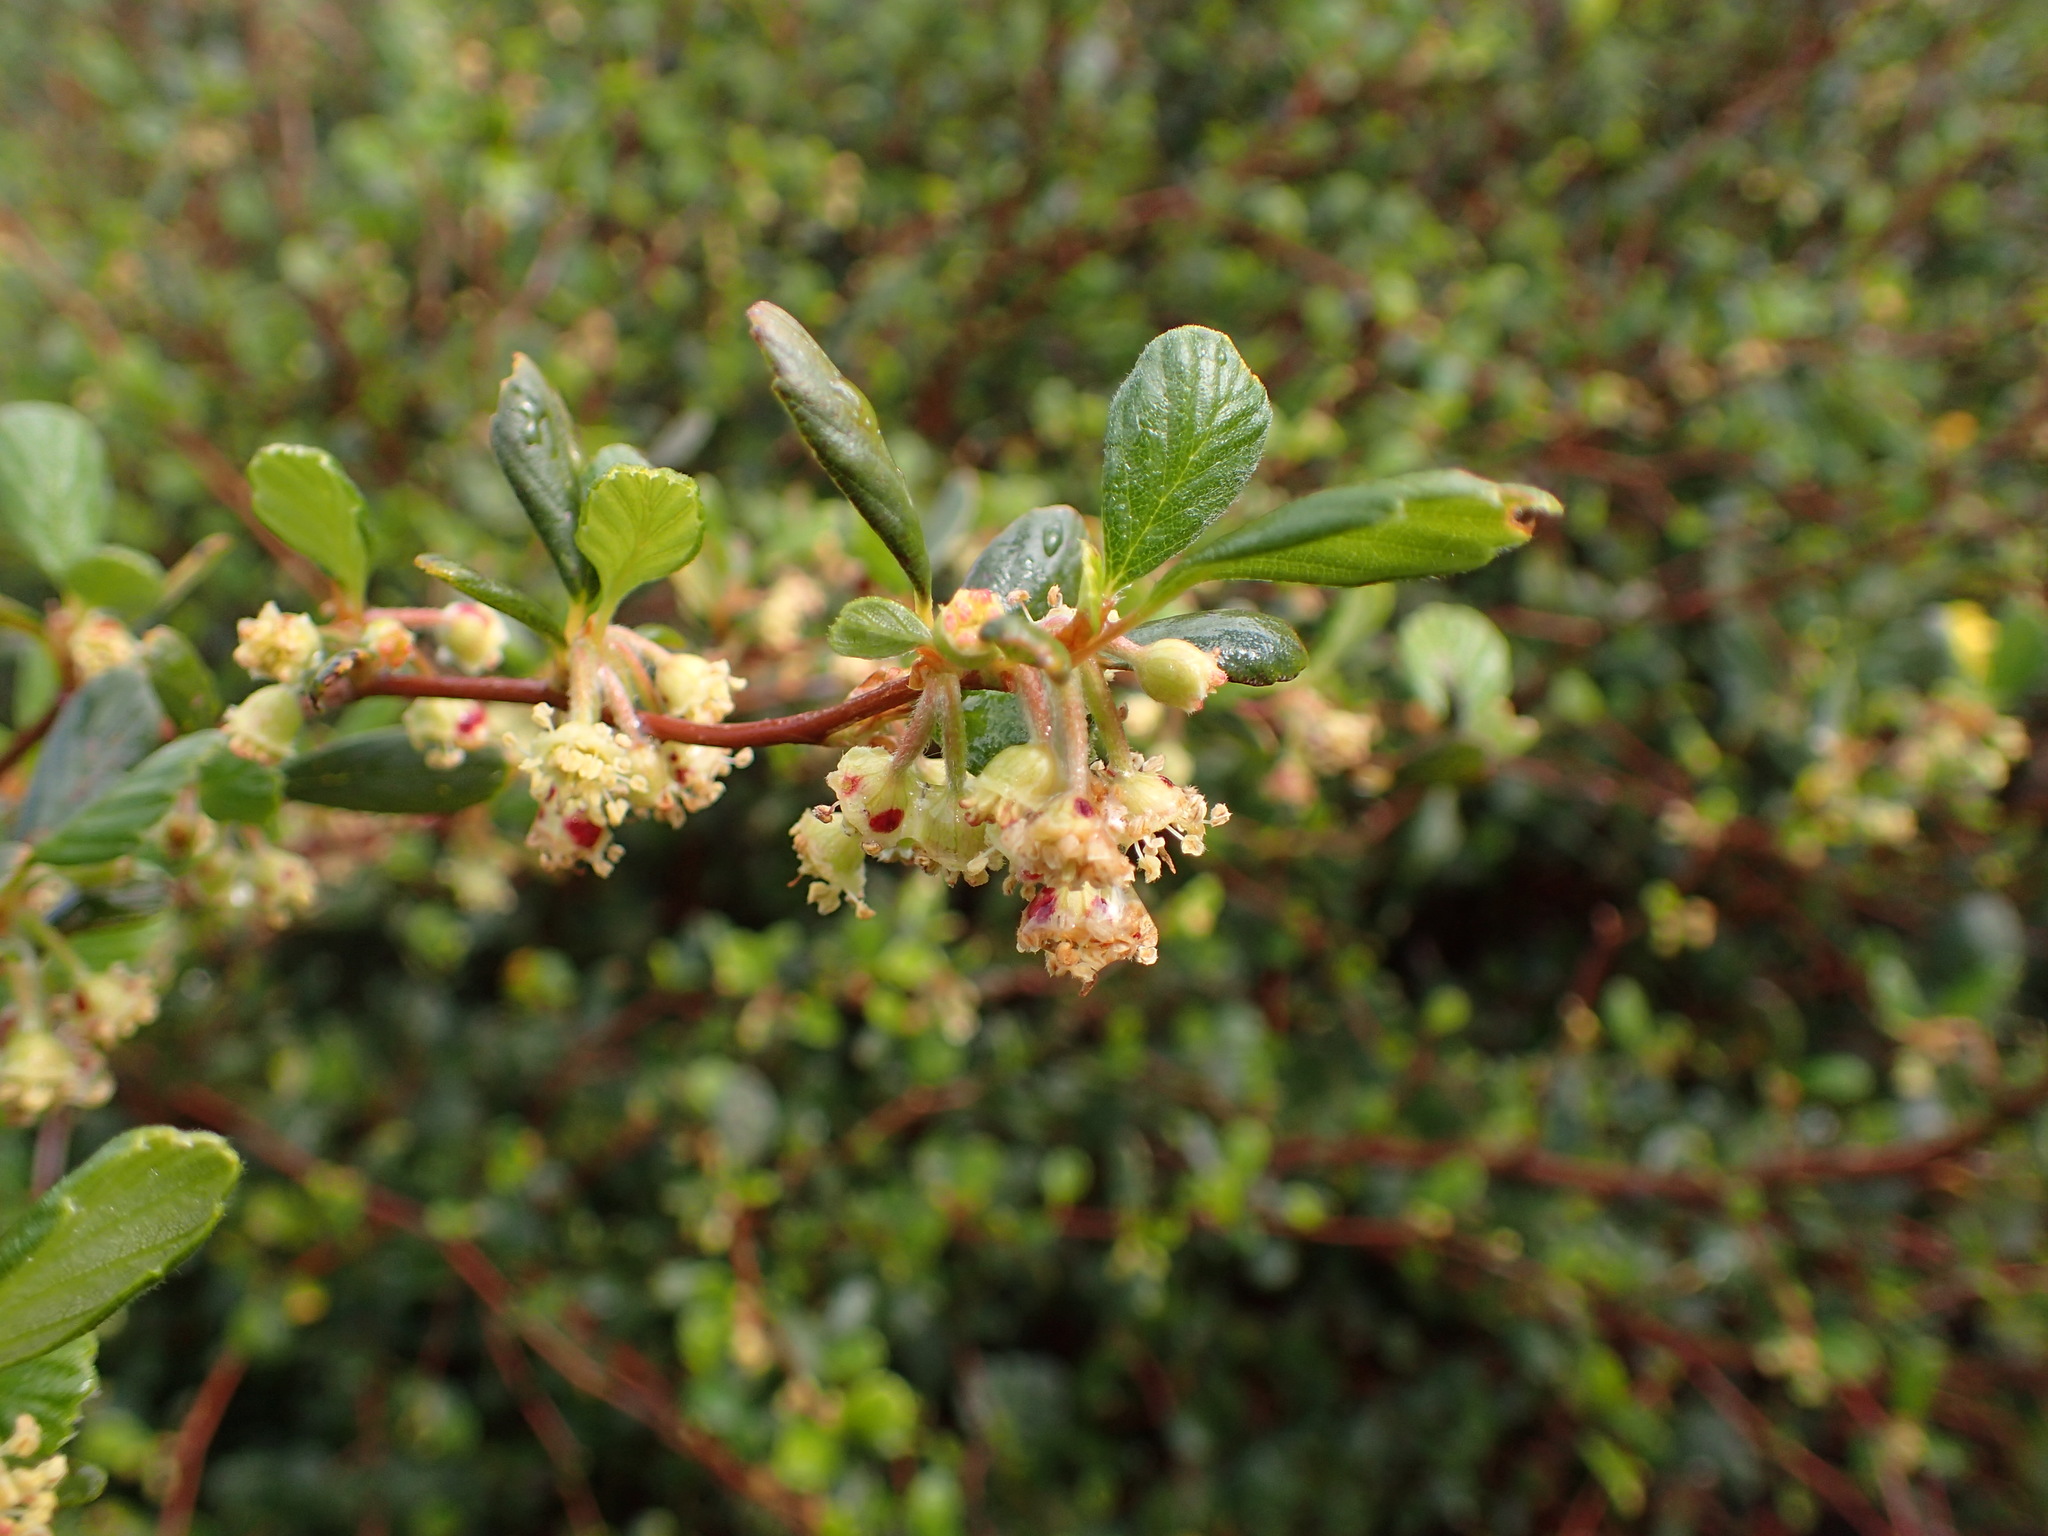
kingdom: Plantae
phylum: Tracheophyta
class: Magnoliopsida
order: Rosales
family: Rosaceae
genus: Cercocarpus
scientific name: Cercocarpus betuloides
